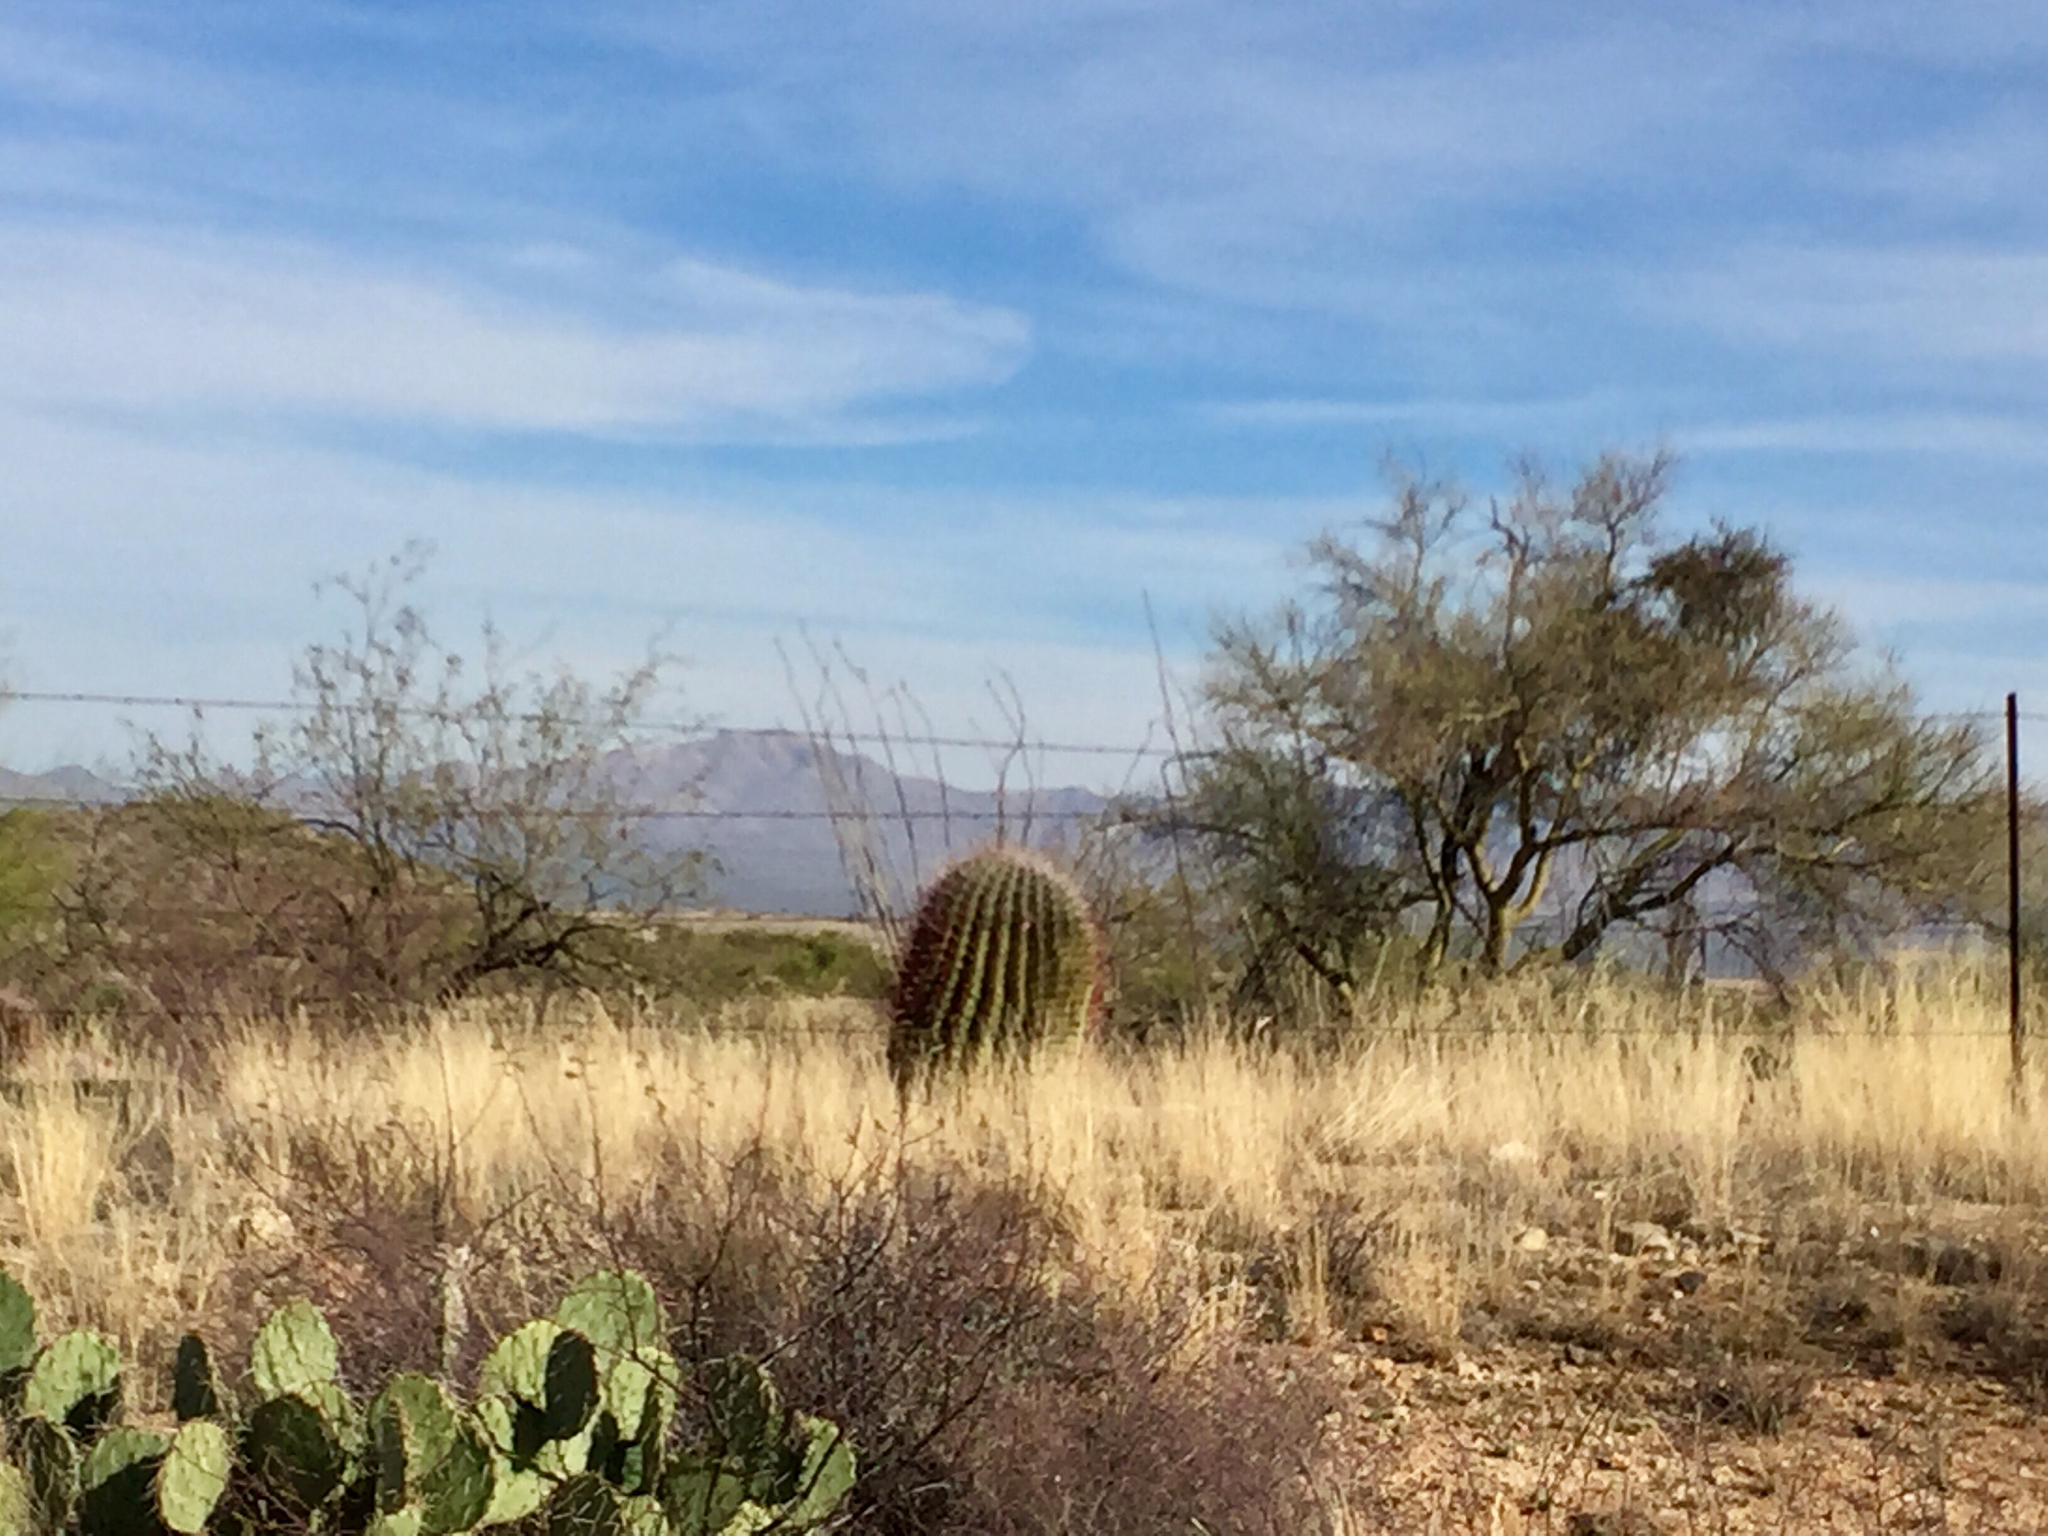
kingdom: Plantae
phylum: Tracheophyta
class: Magnoliopsida
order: Caryophyllales
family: Cactaceae
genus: Ferocactus
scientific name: Ferocactus wislizeni
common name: Candy barrel cactus
